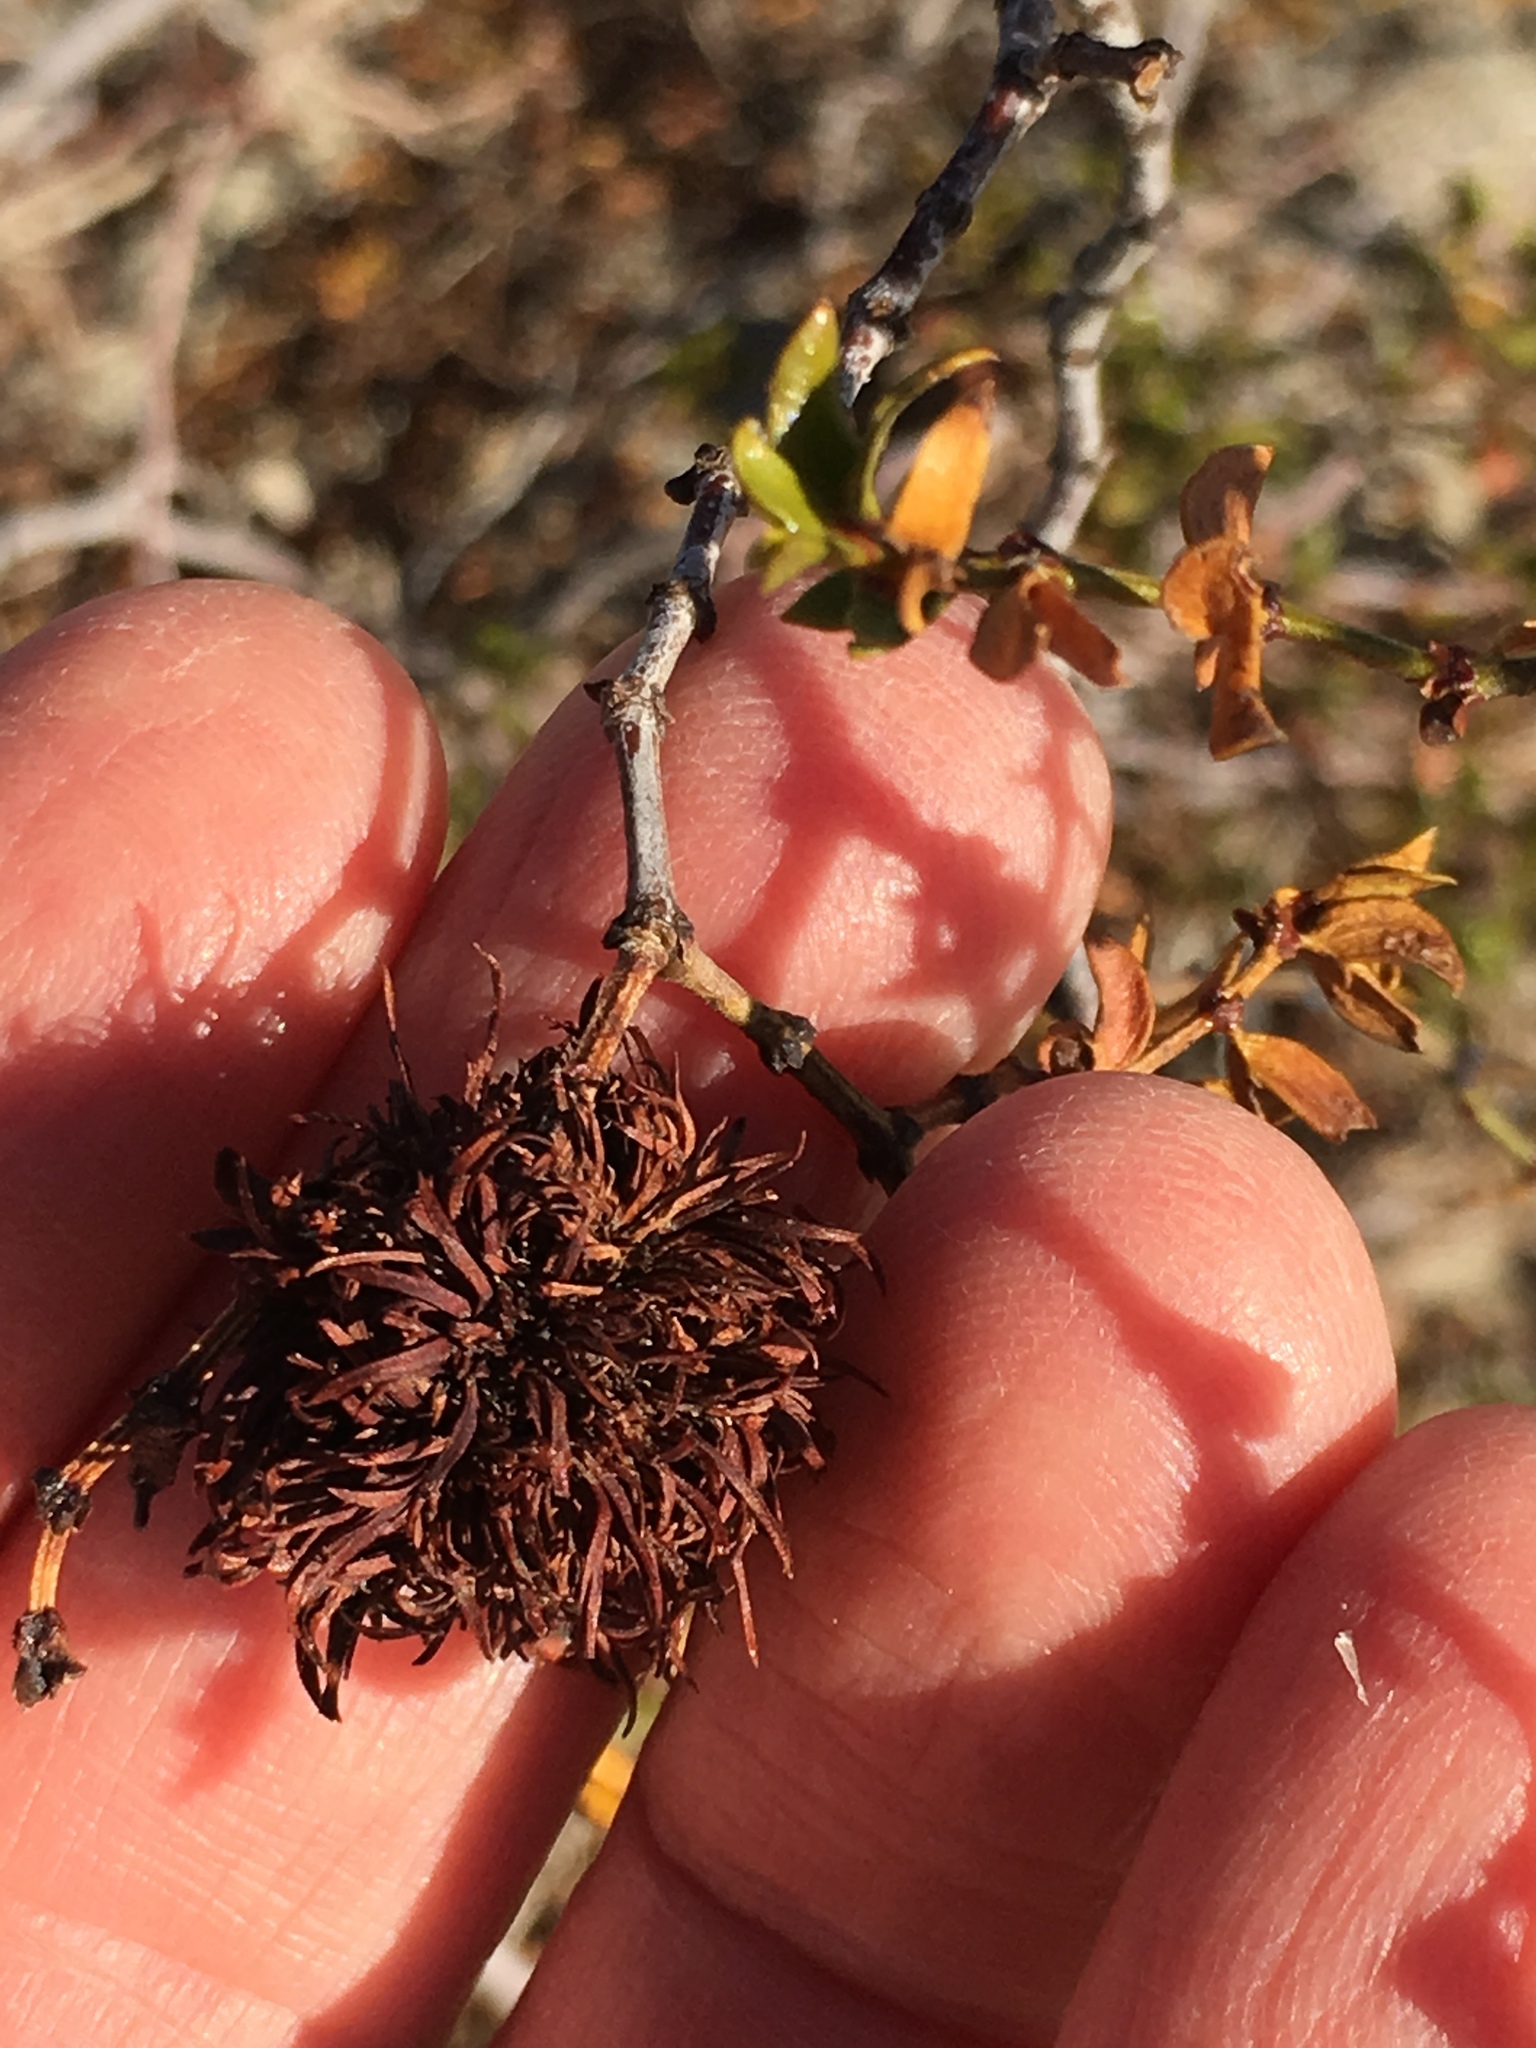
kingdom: Plantae
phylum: Tracheophyta
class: Magnoliopsida
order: Zygophyllales
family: Zygophyllaceae
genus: Larrea
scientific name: Larrea tridentata
